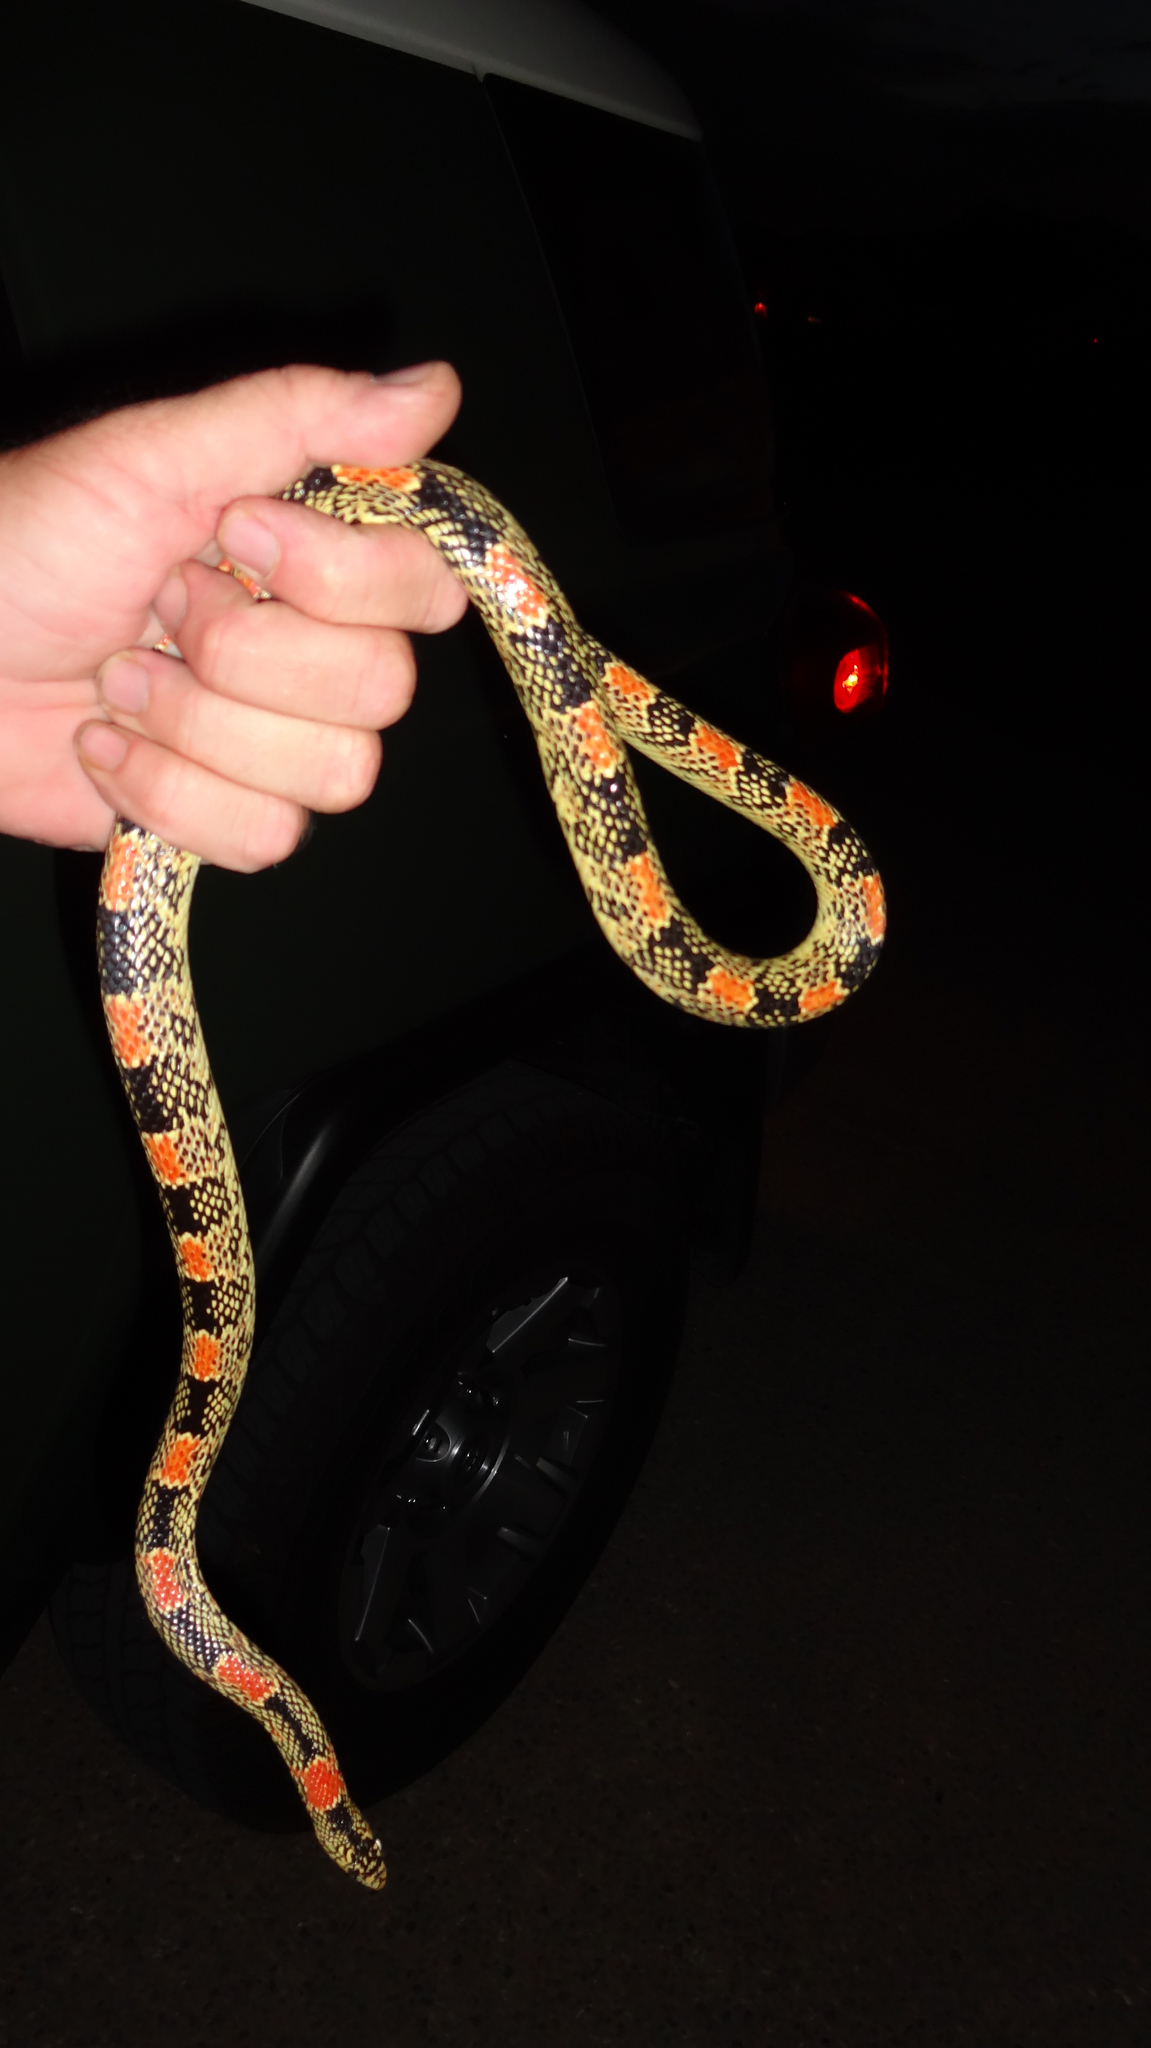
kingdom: Animalia
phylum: Chordata
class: Squamata
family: Colubridae
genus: Rhinocheilus
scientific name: Rhinocheilus lecontei
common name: Longnose snake
